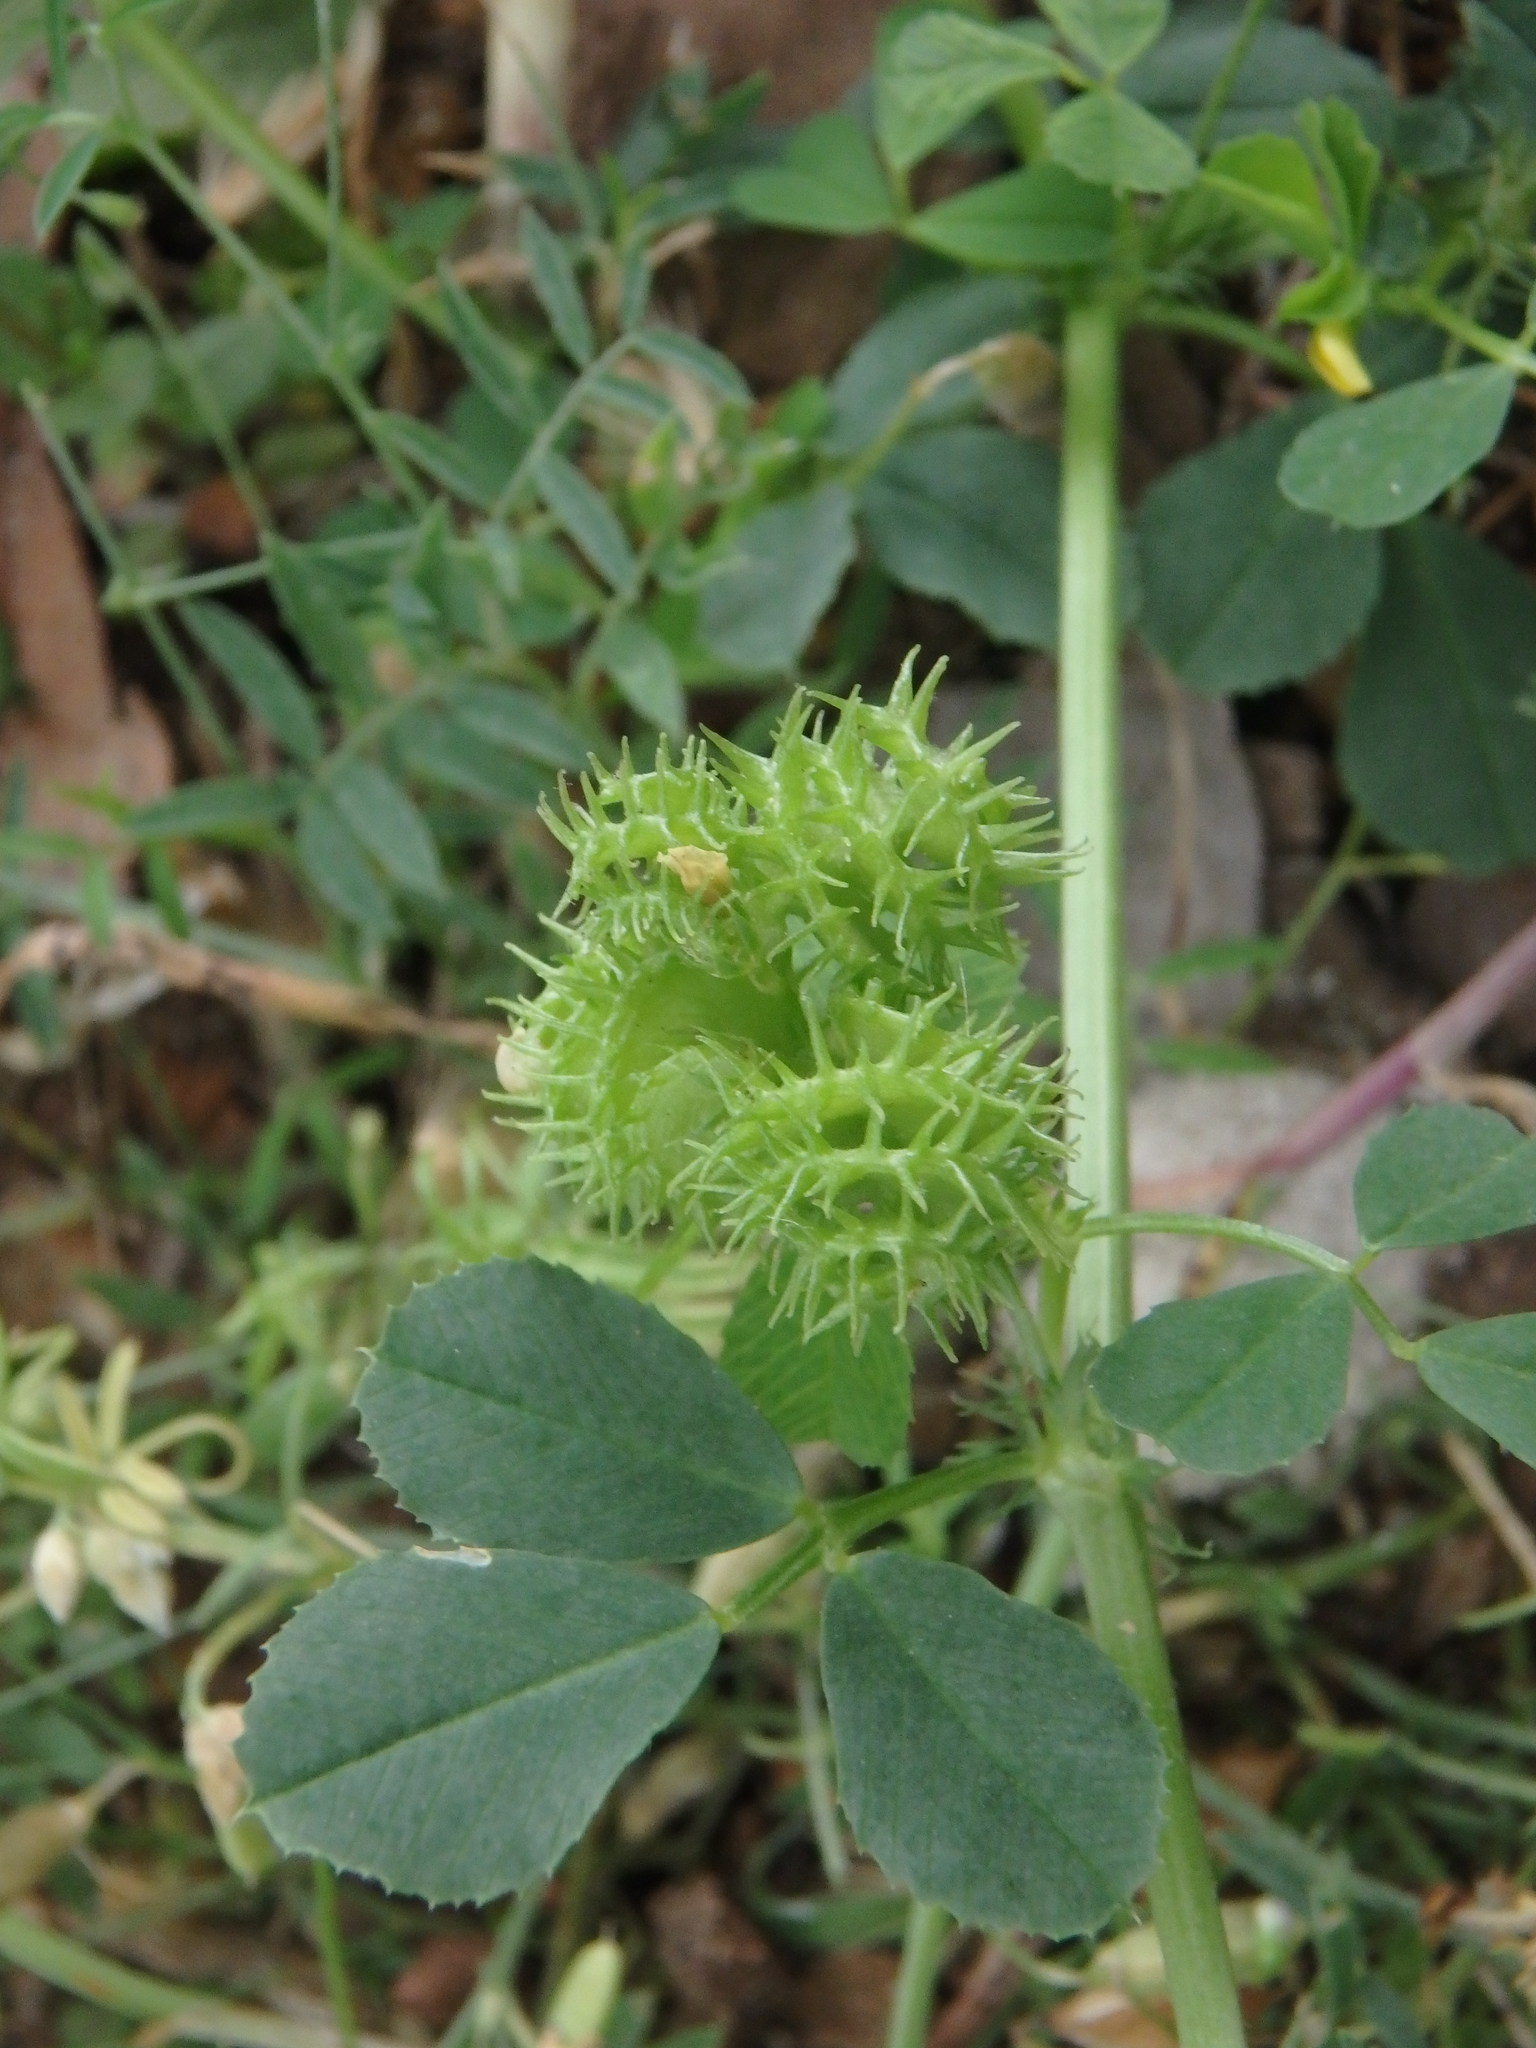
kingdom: Plantae
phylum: Tracheophyta
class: Magnoliopsida
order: Fabales
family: Fabaceae
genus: Medicago
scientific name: Medicago polymorpha
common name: Burclover
